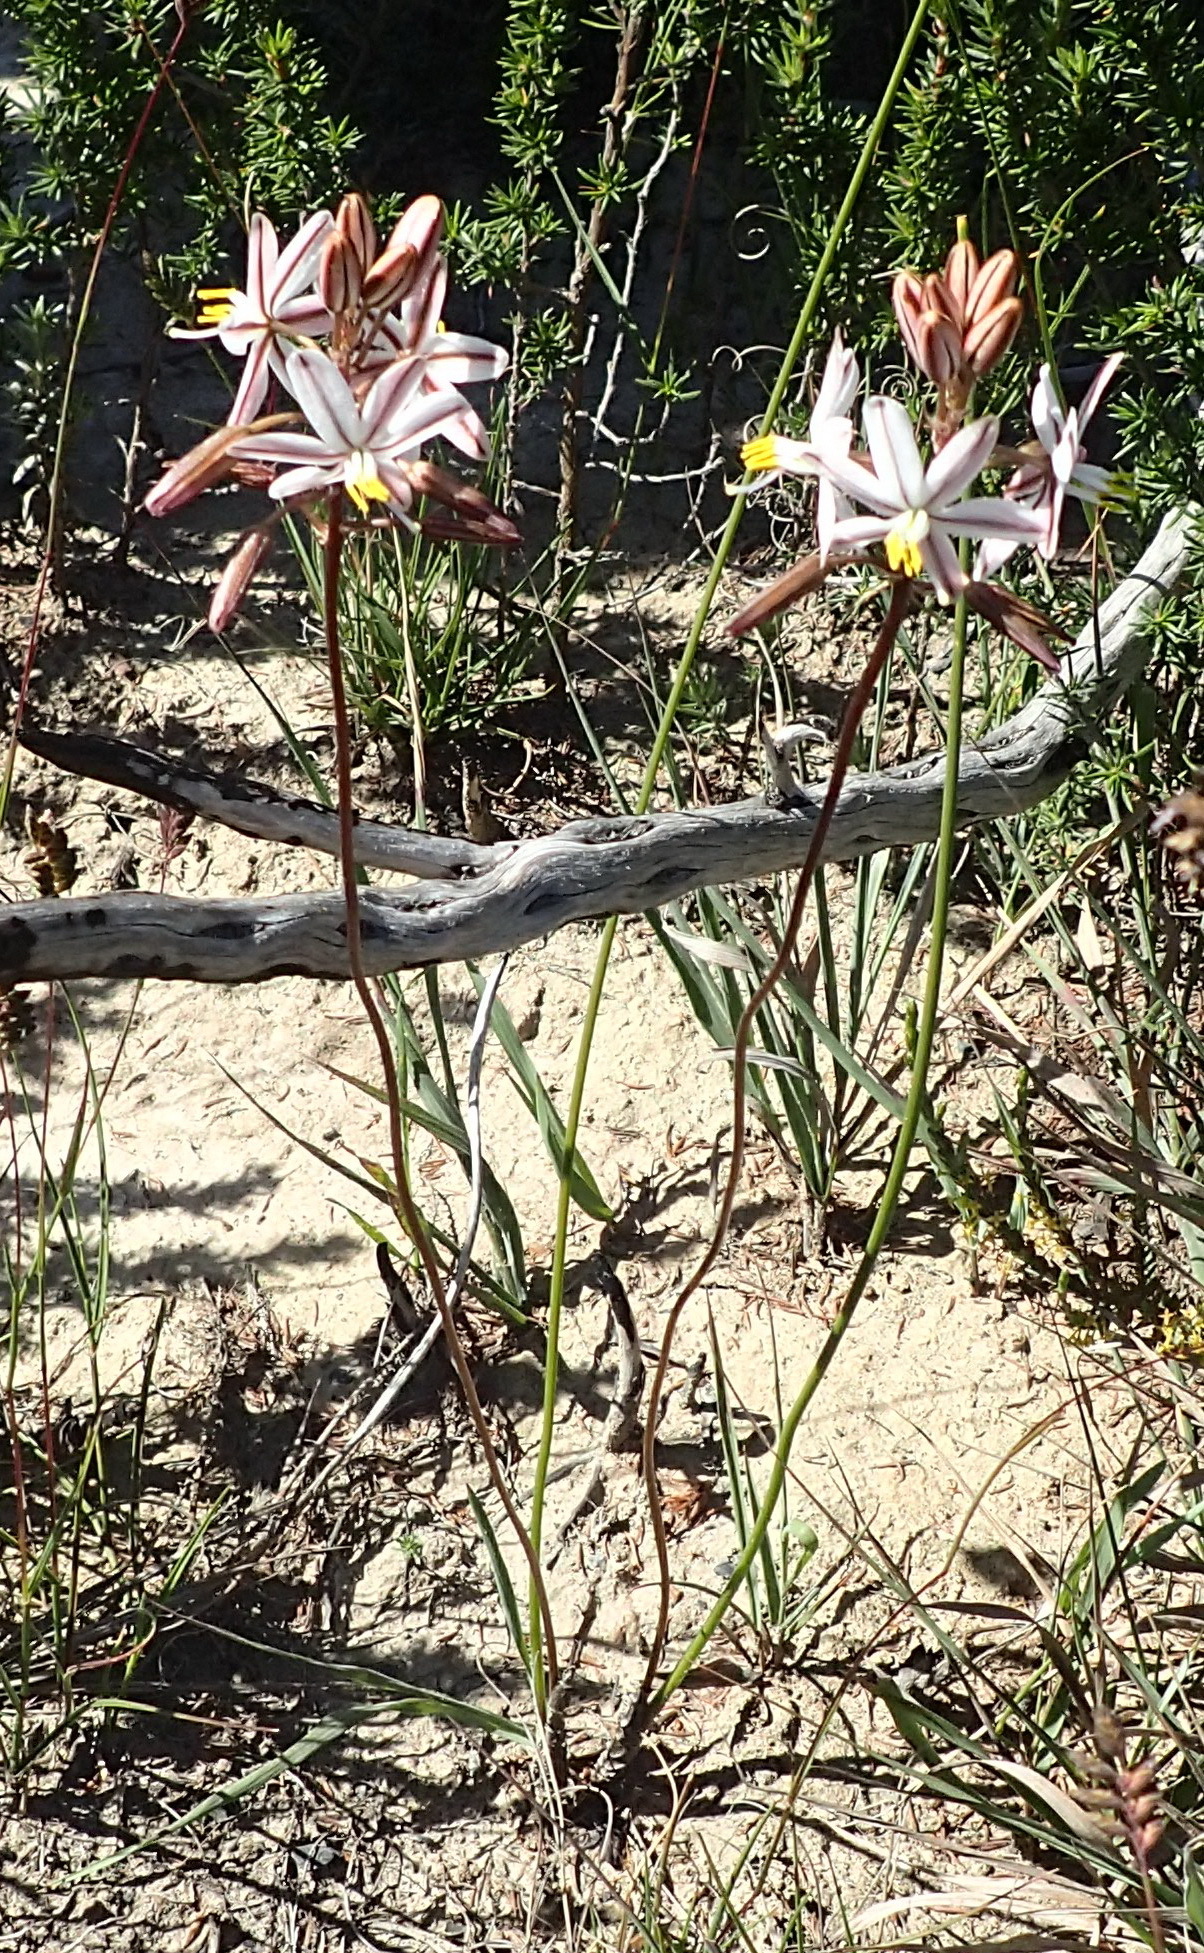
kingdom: Plantae
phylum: Tracheophyta
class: Liliopsida
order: Asparagales
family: Asparagaceae
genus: Drimia
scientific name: Drimia exuviata
